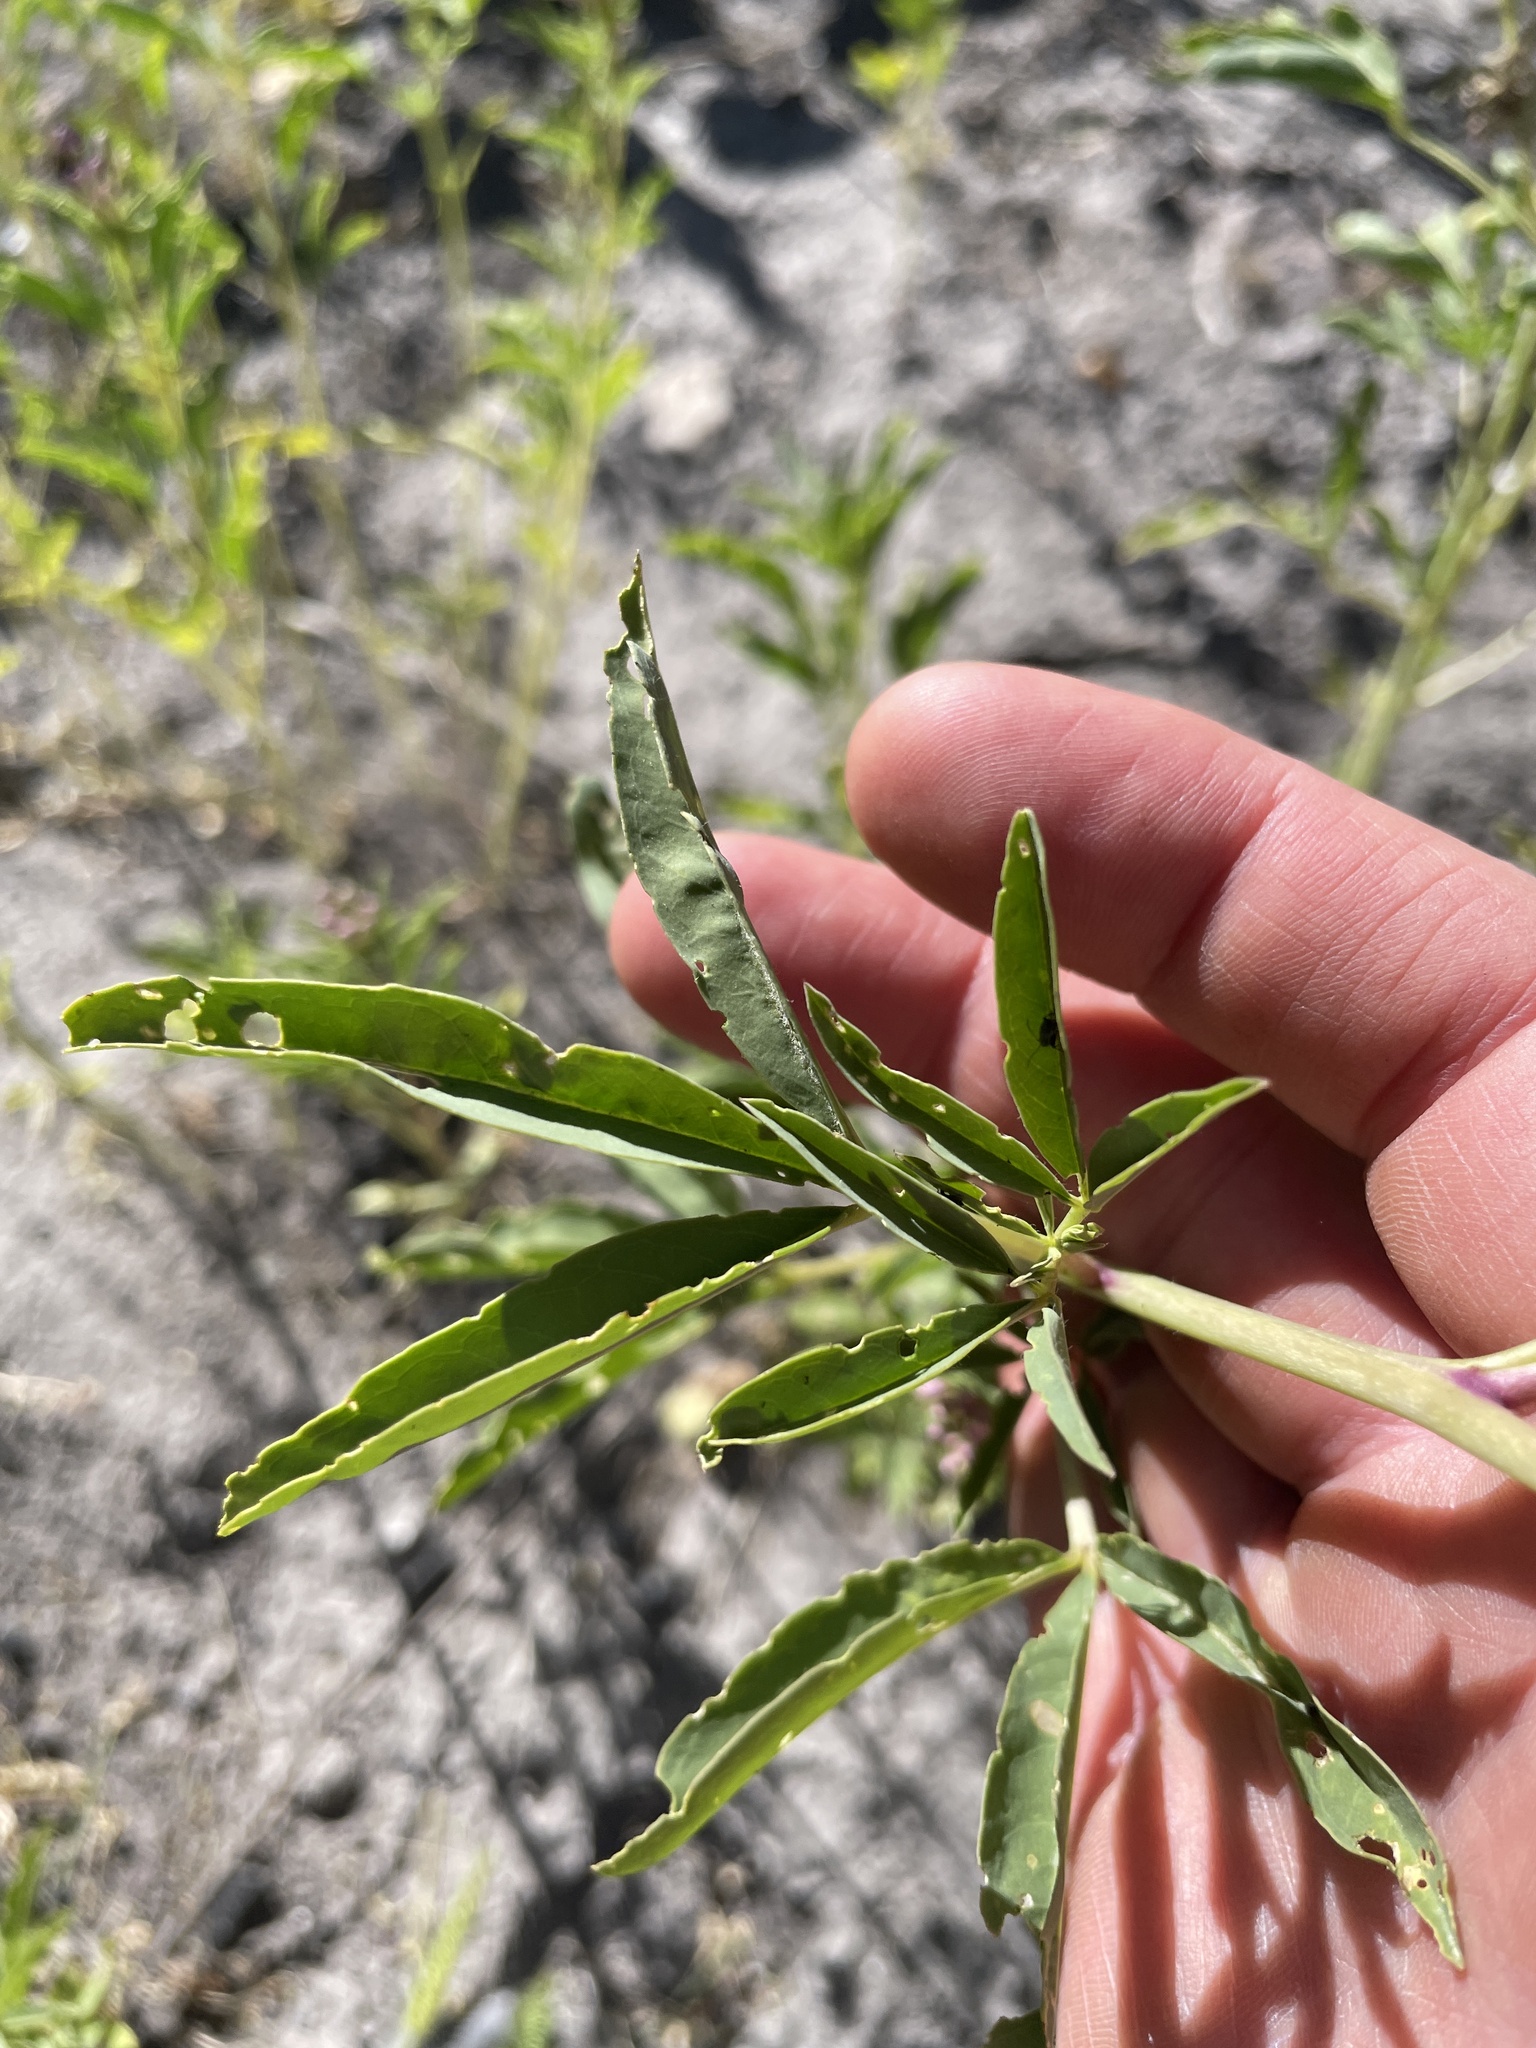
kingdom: Plantae
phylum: Tracheophyta
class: Magnoliopsida
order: Brassicales
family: Cleomaceae
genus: Cleomella
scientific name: Cleomella serrulata
